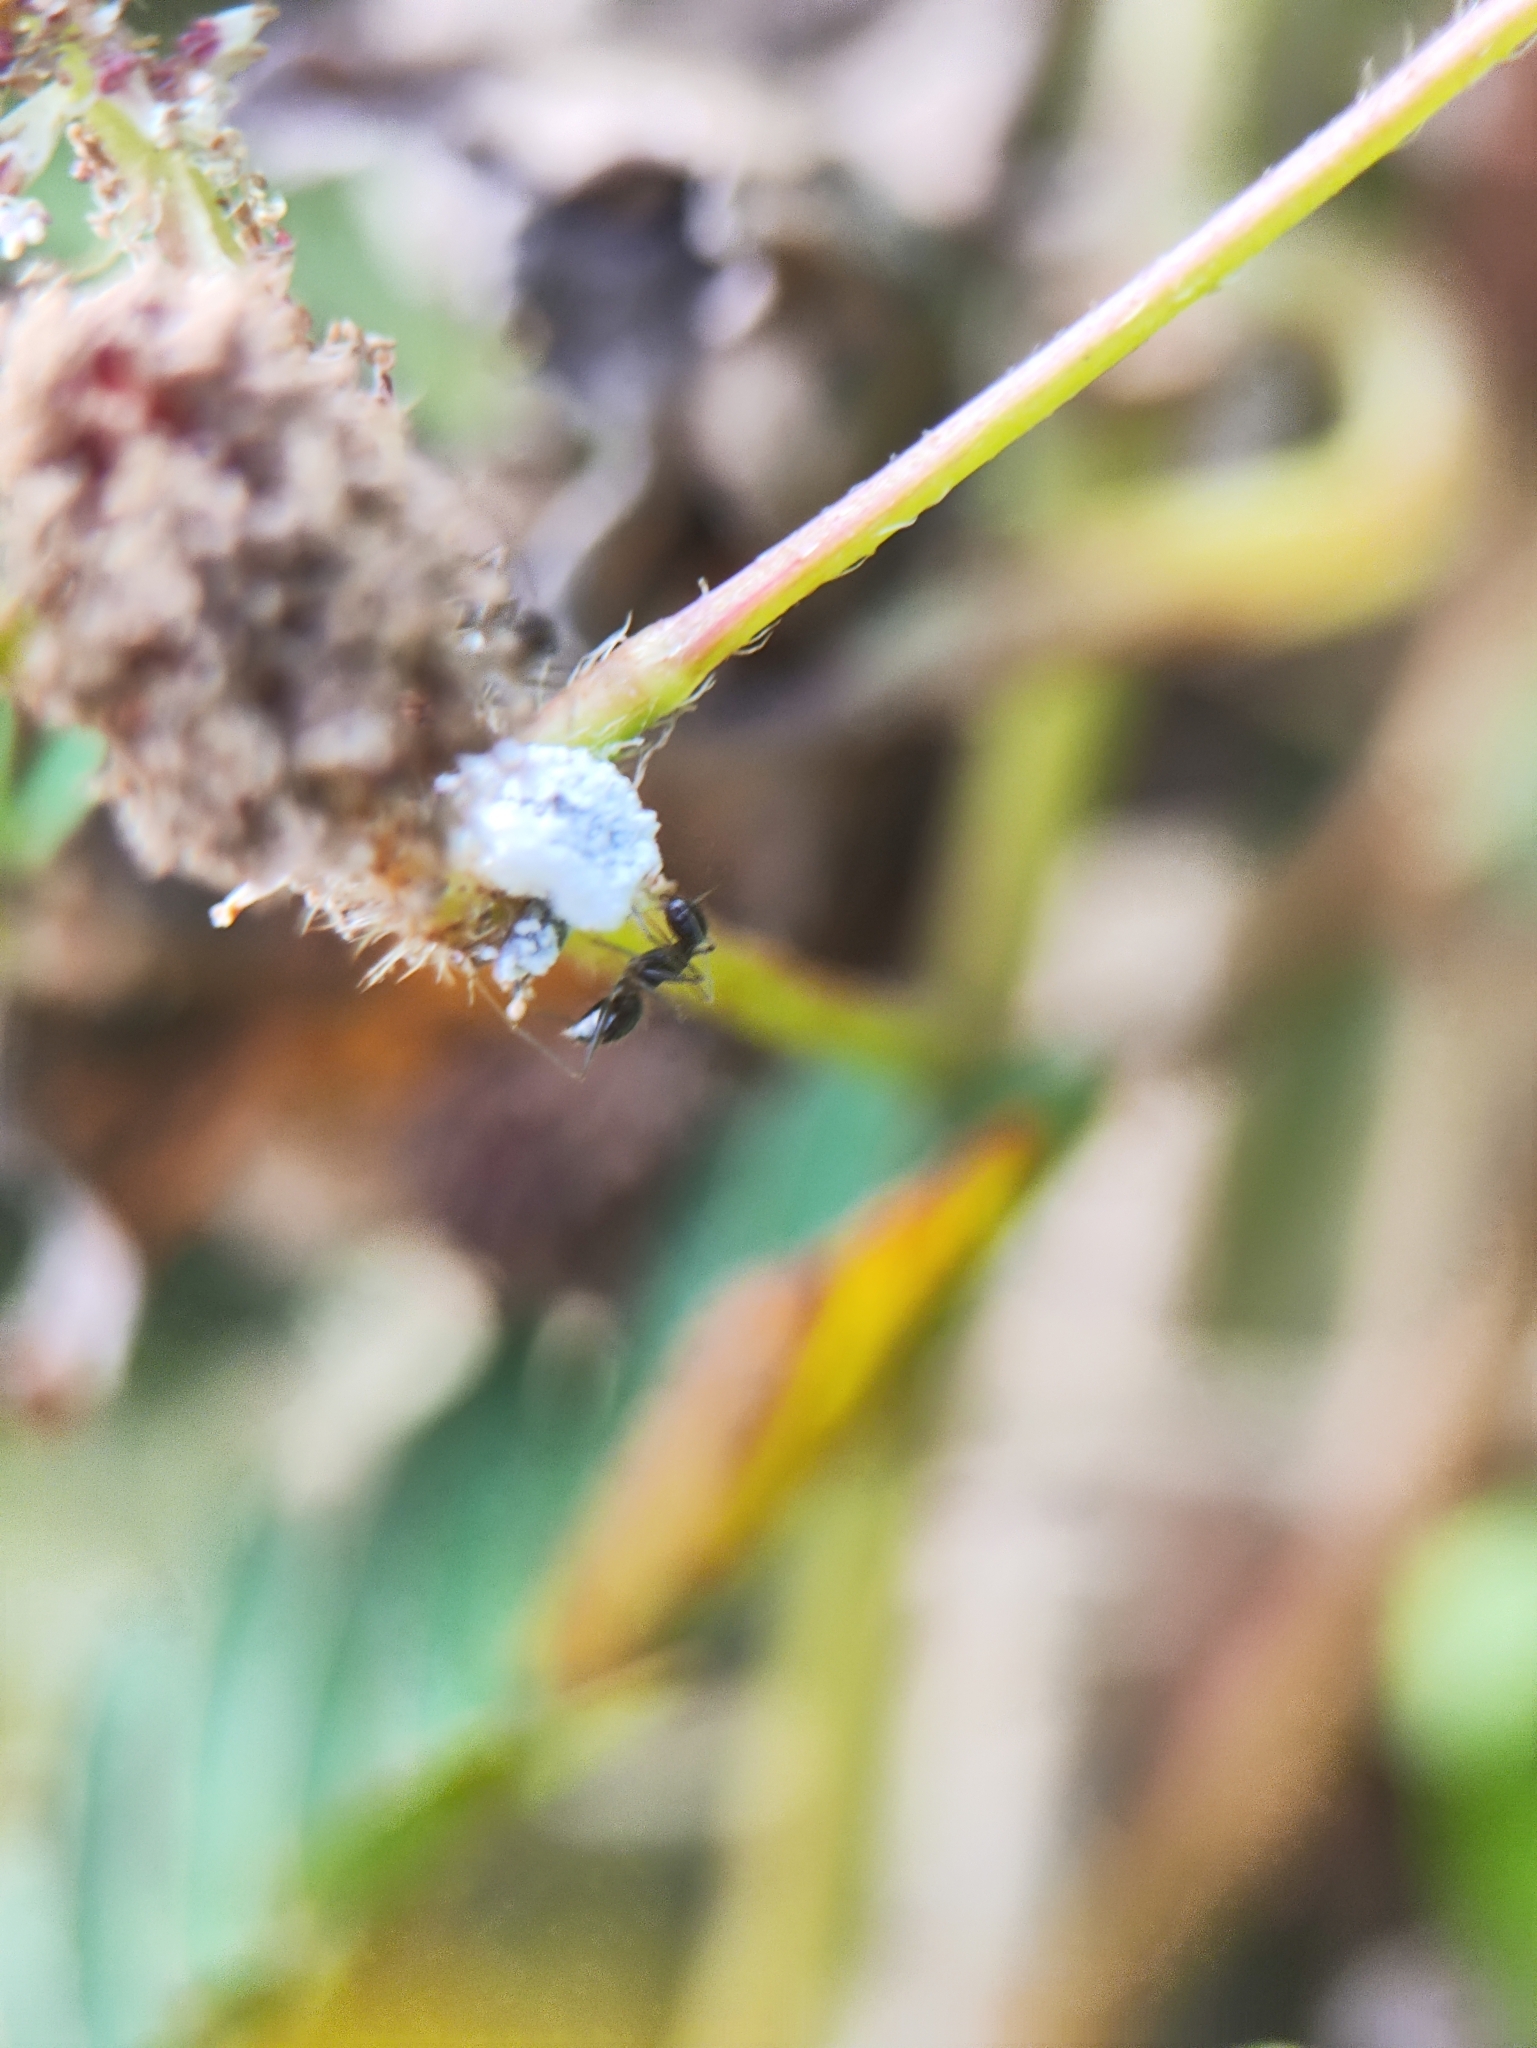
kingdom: Animalia
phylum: Arthropoda
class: Insecta
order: Hymenoptera
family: Formicidae
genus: Paratrechina
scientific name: Paratrechina longicornis
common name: Longhorned crazy ant
